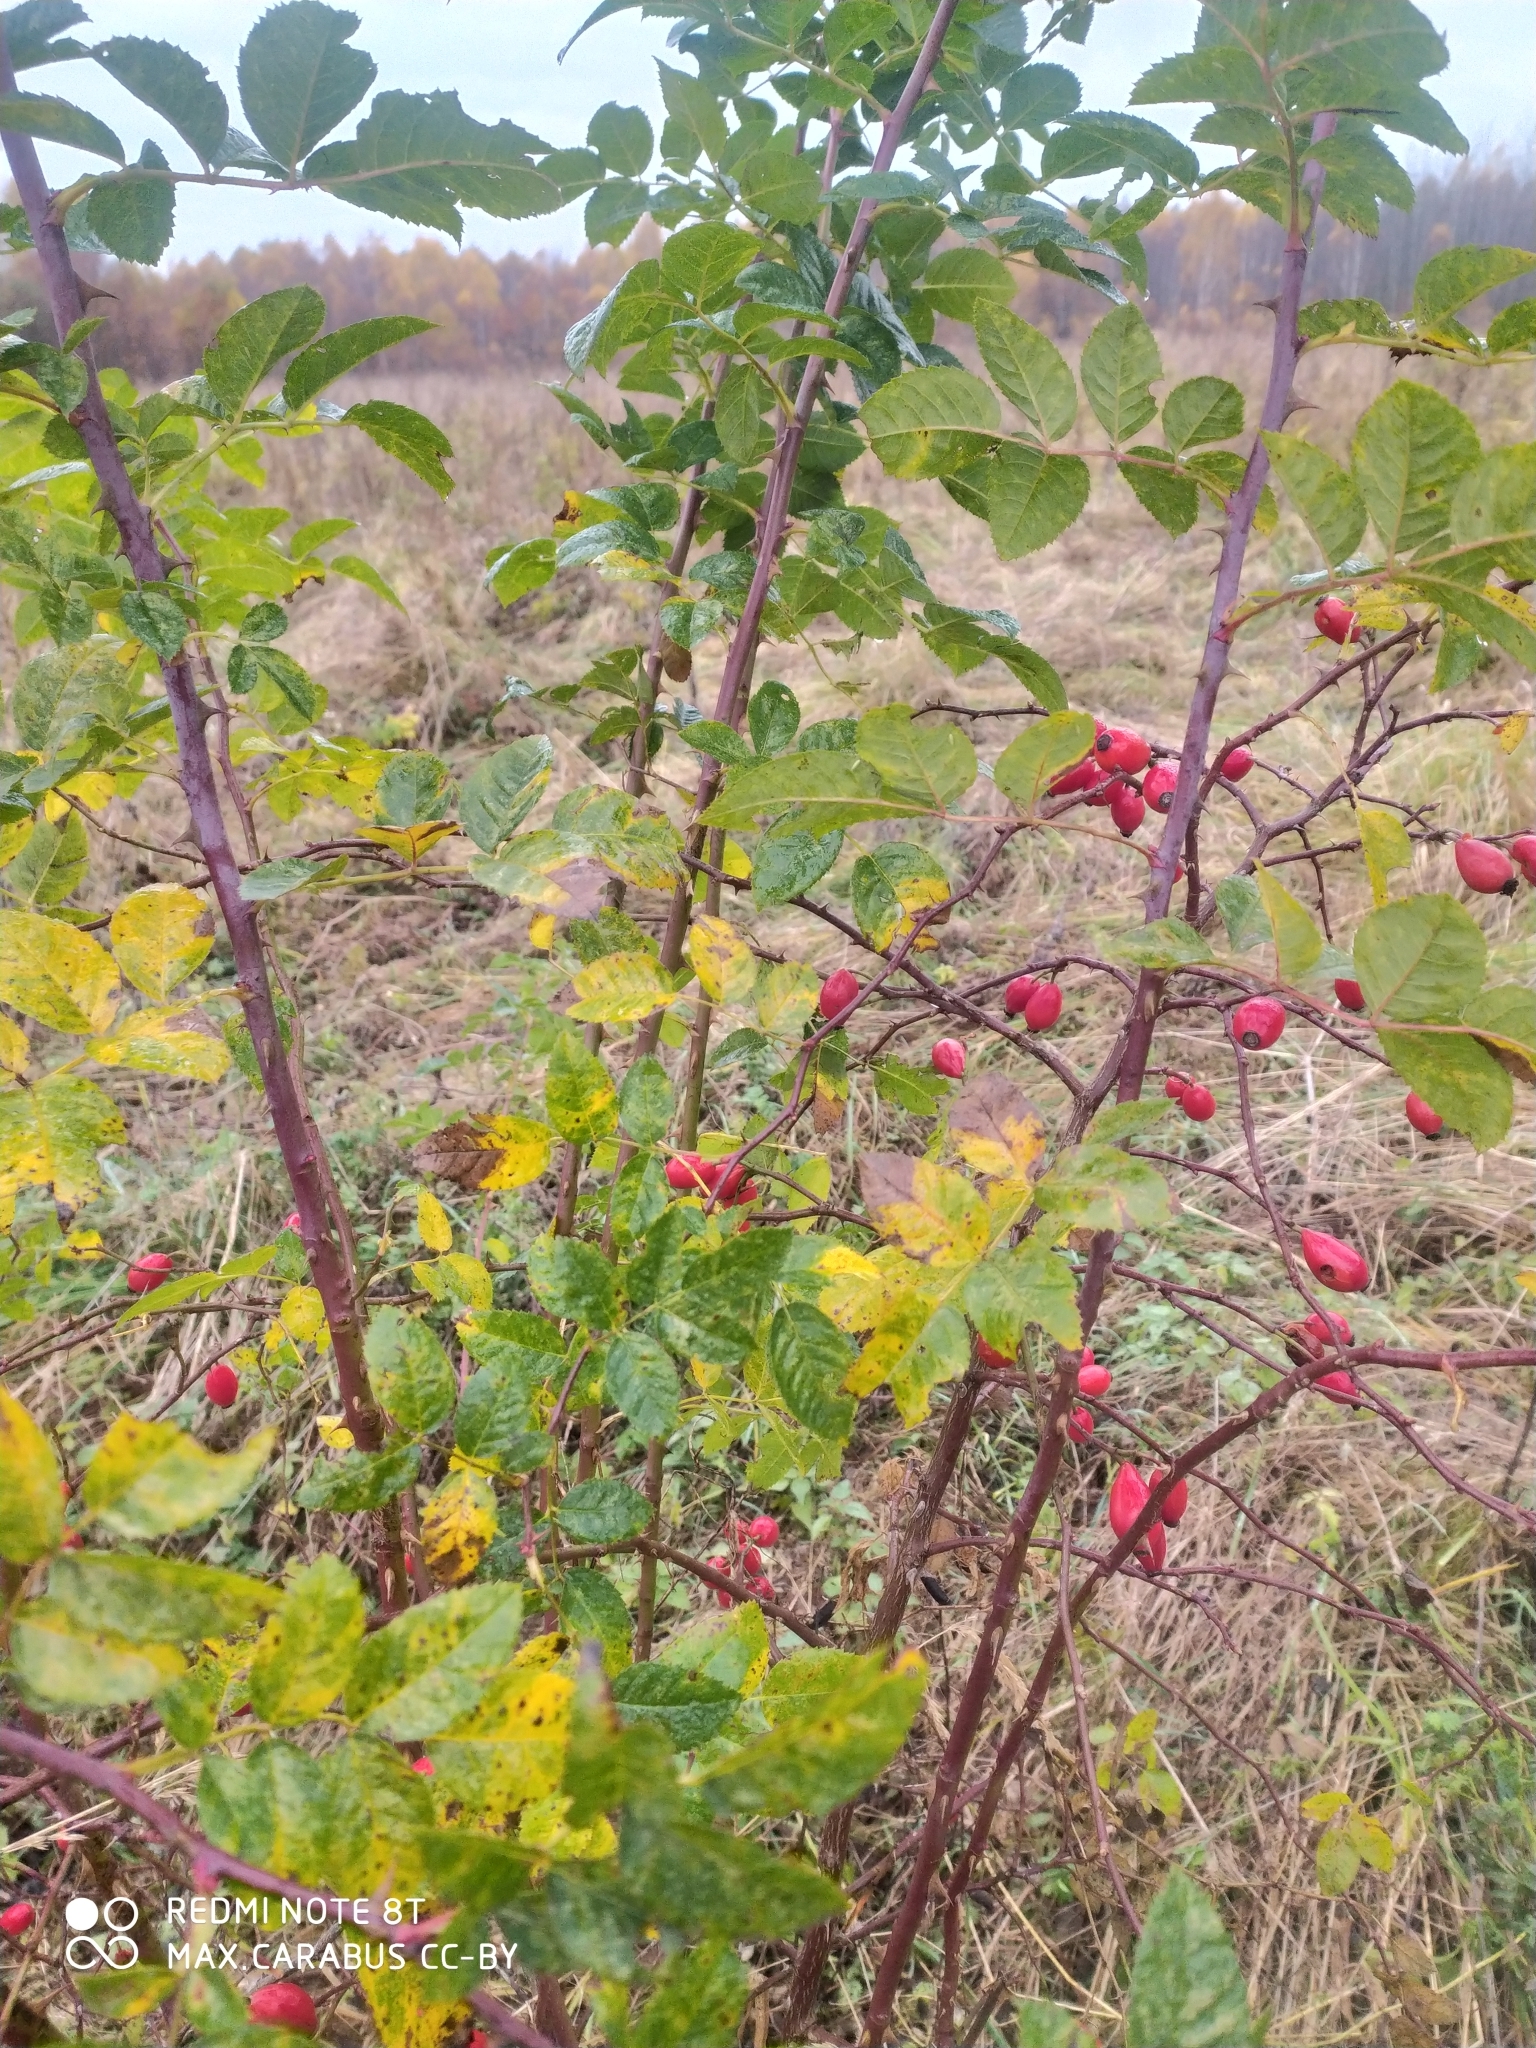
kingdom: Plantae
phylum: Tracheophyta
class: Magnoliopsida
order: Rosales
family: Rosaceae
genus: Rosa
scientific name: Rosa
